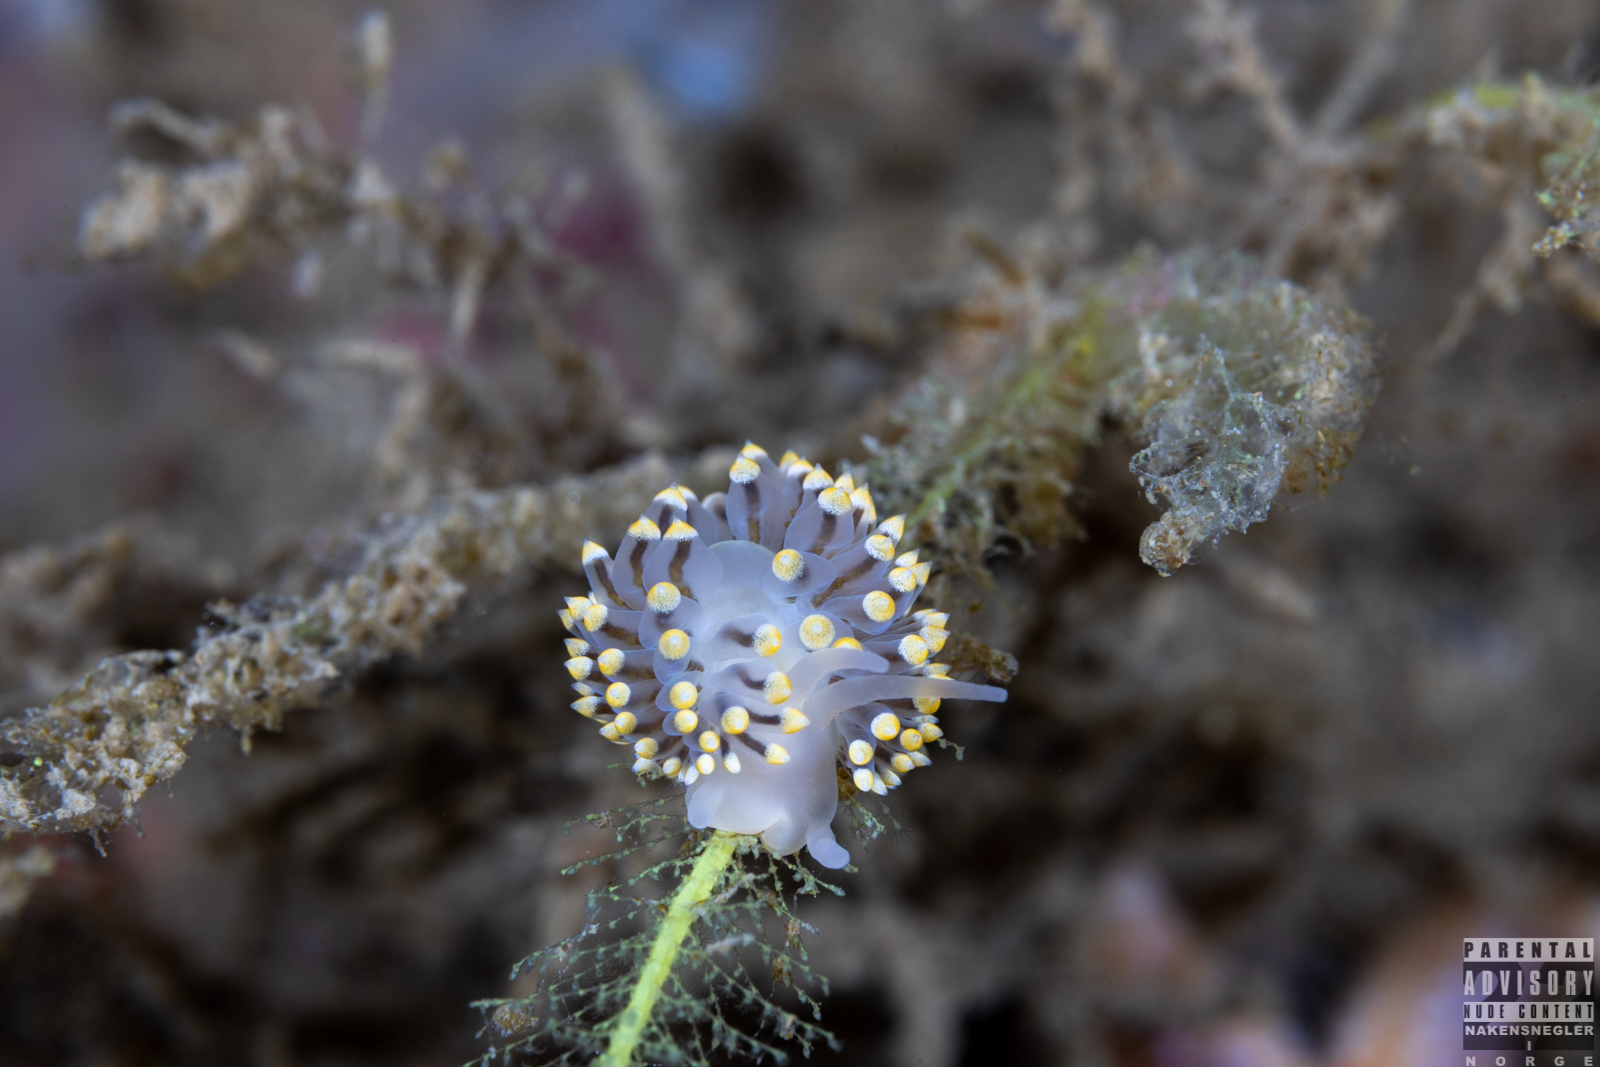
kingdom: Animalia
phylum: Mollusca
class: Gastropoda
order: Nudibranchia
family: Eubranchidae
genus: Eubranchus
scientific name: Eubranchus tricolor
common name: Painted balloon aeolis
